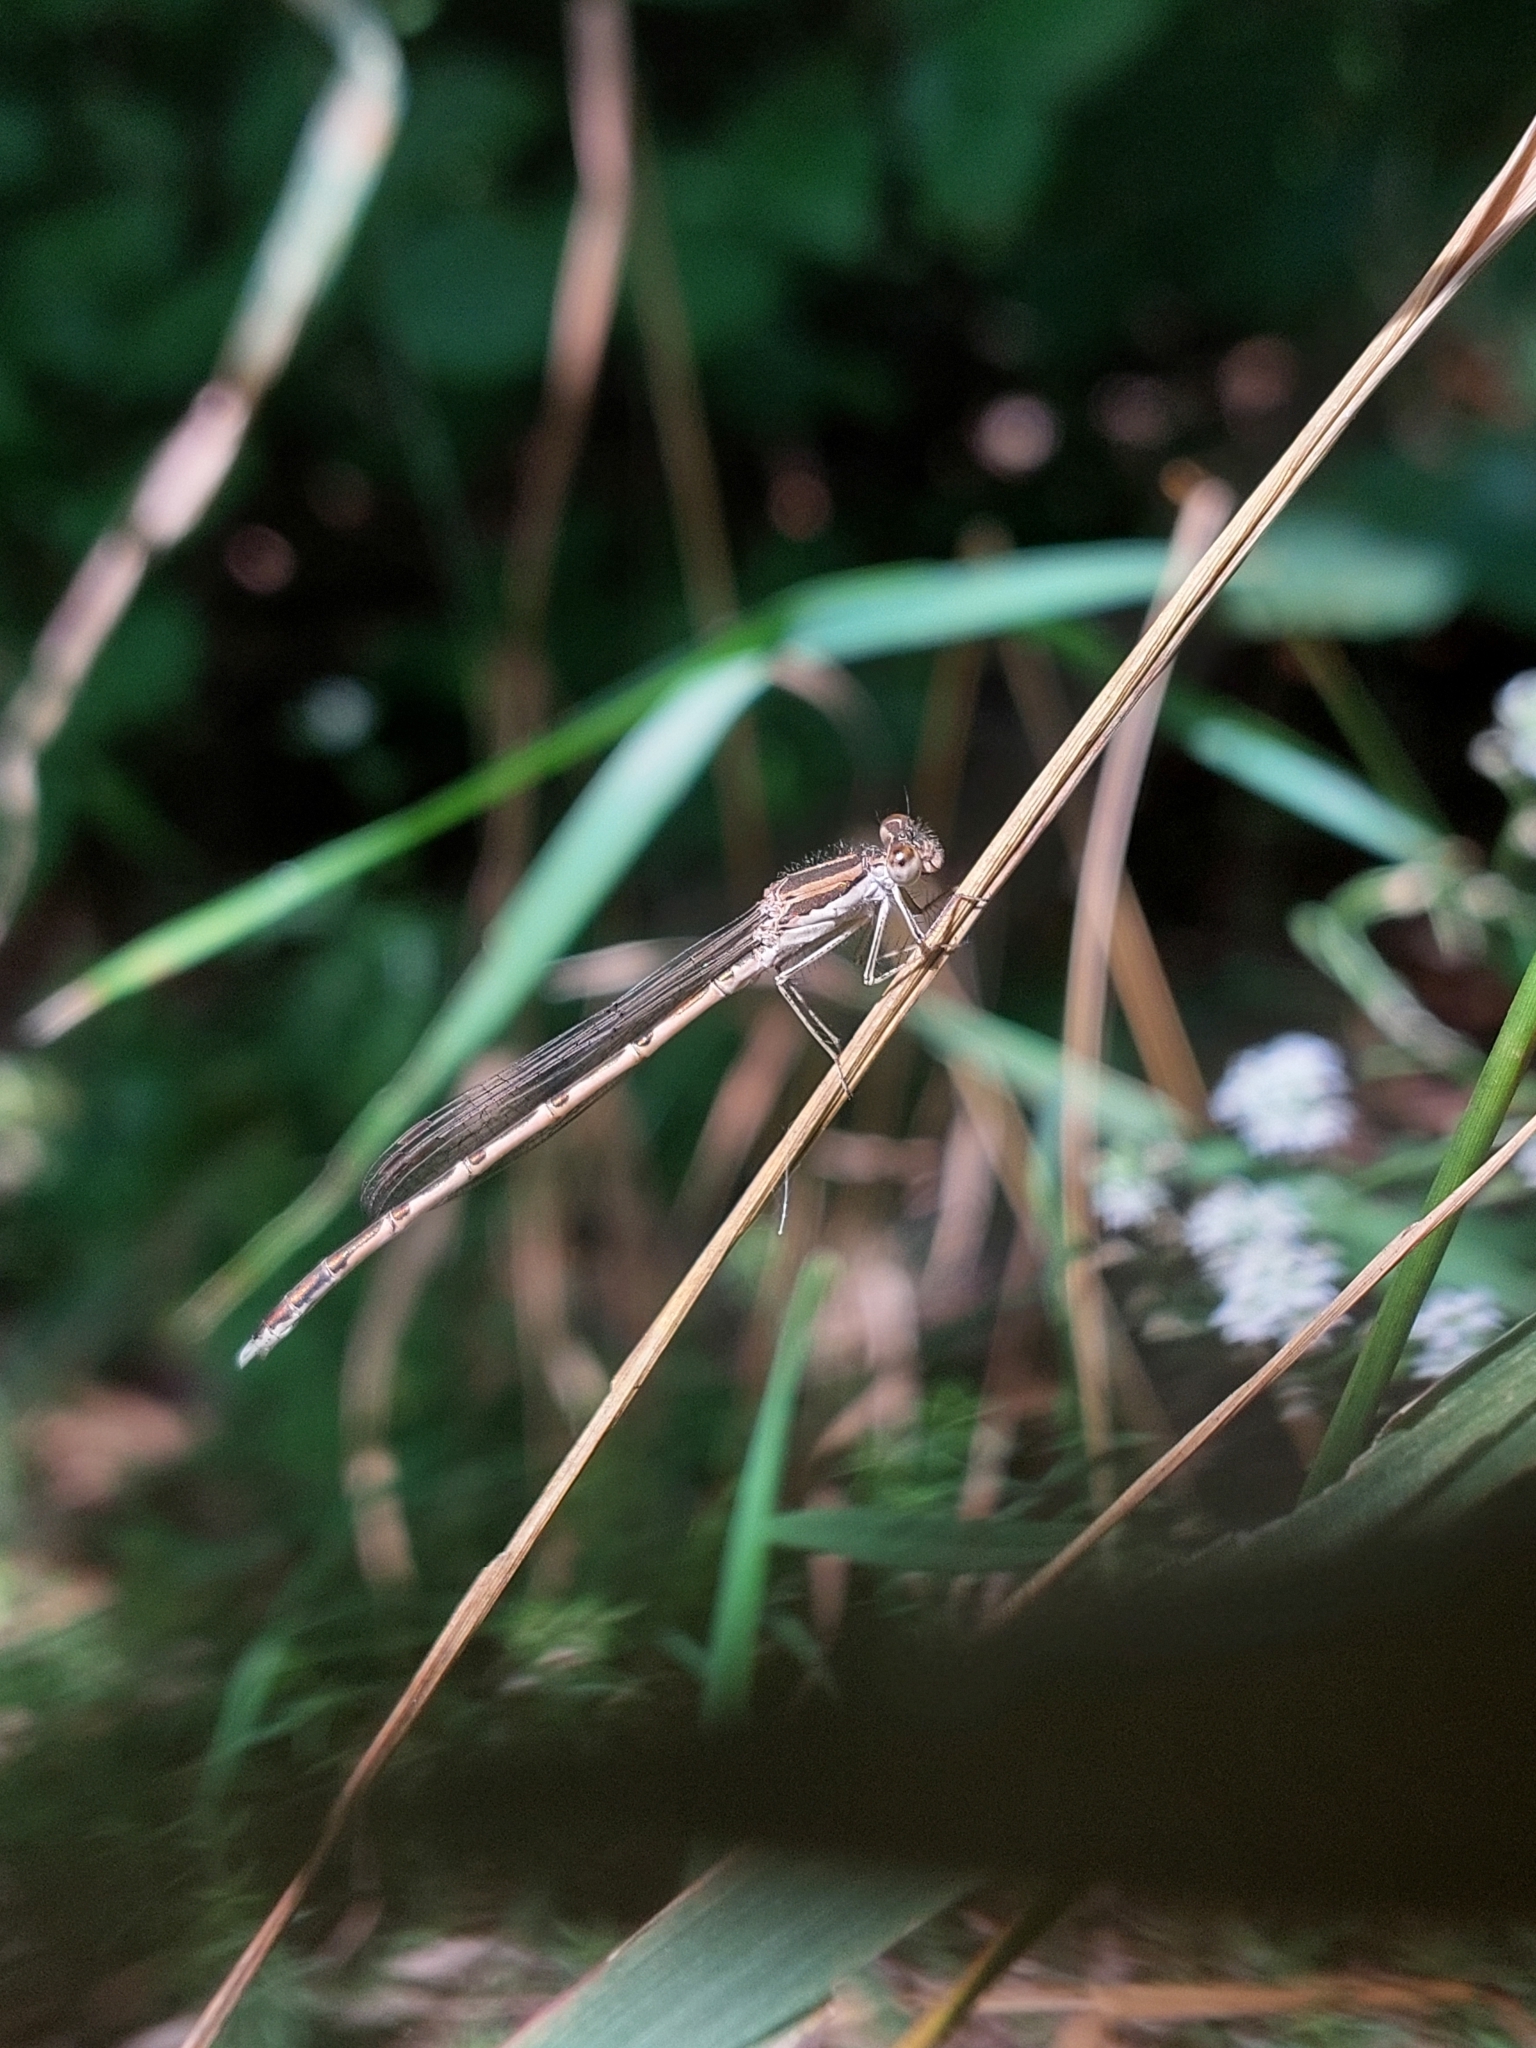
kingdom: Animalia
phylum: Arthropoda
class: Insecta
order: Odonata
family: Lestidae
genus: Sympecma
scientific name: Sympecma fusca
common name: Common winter damsel
